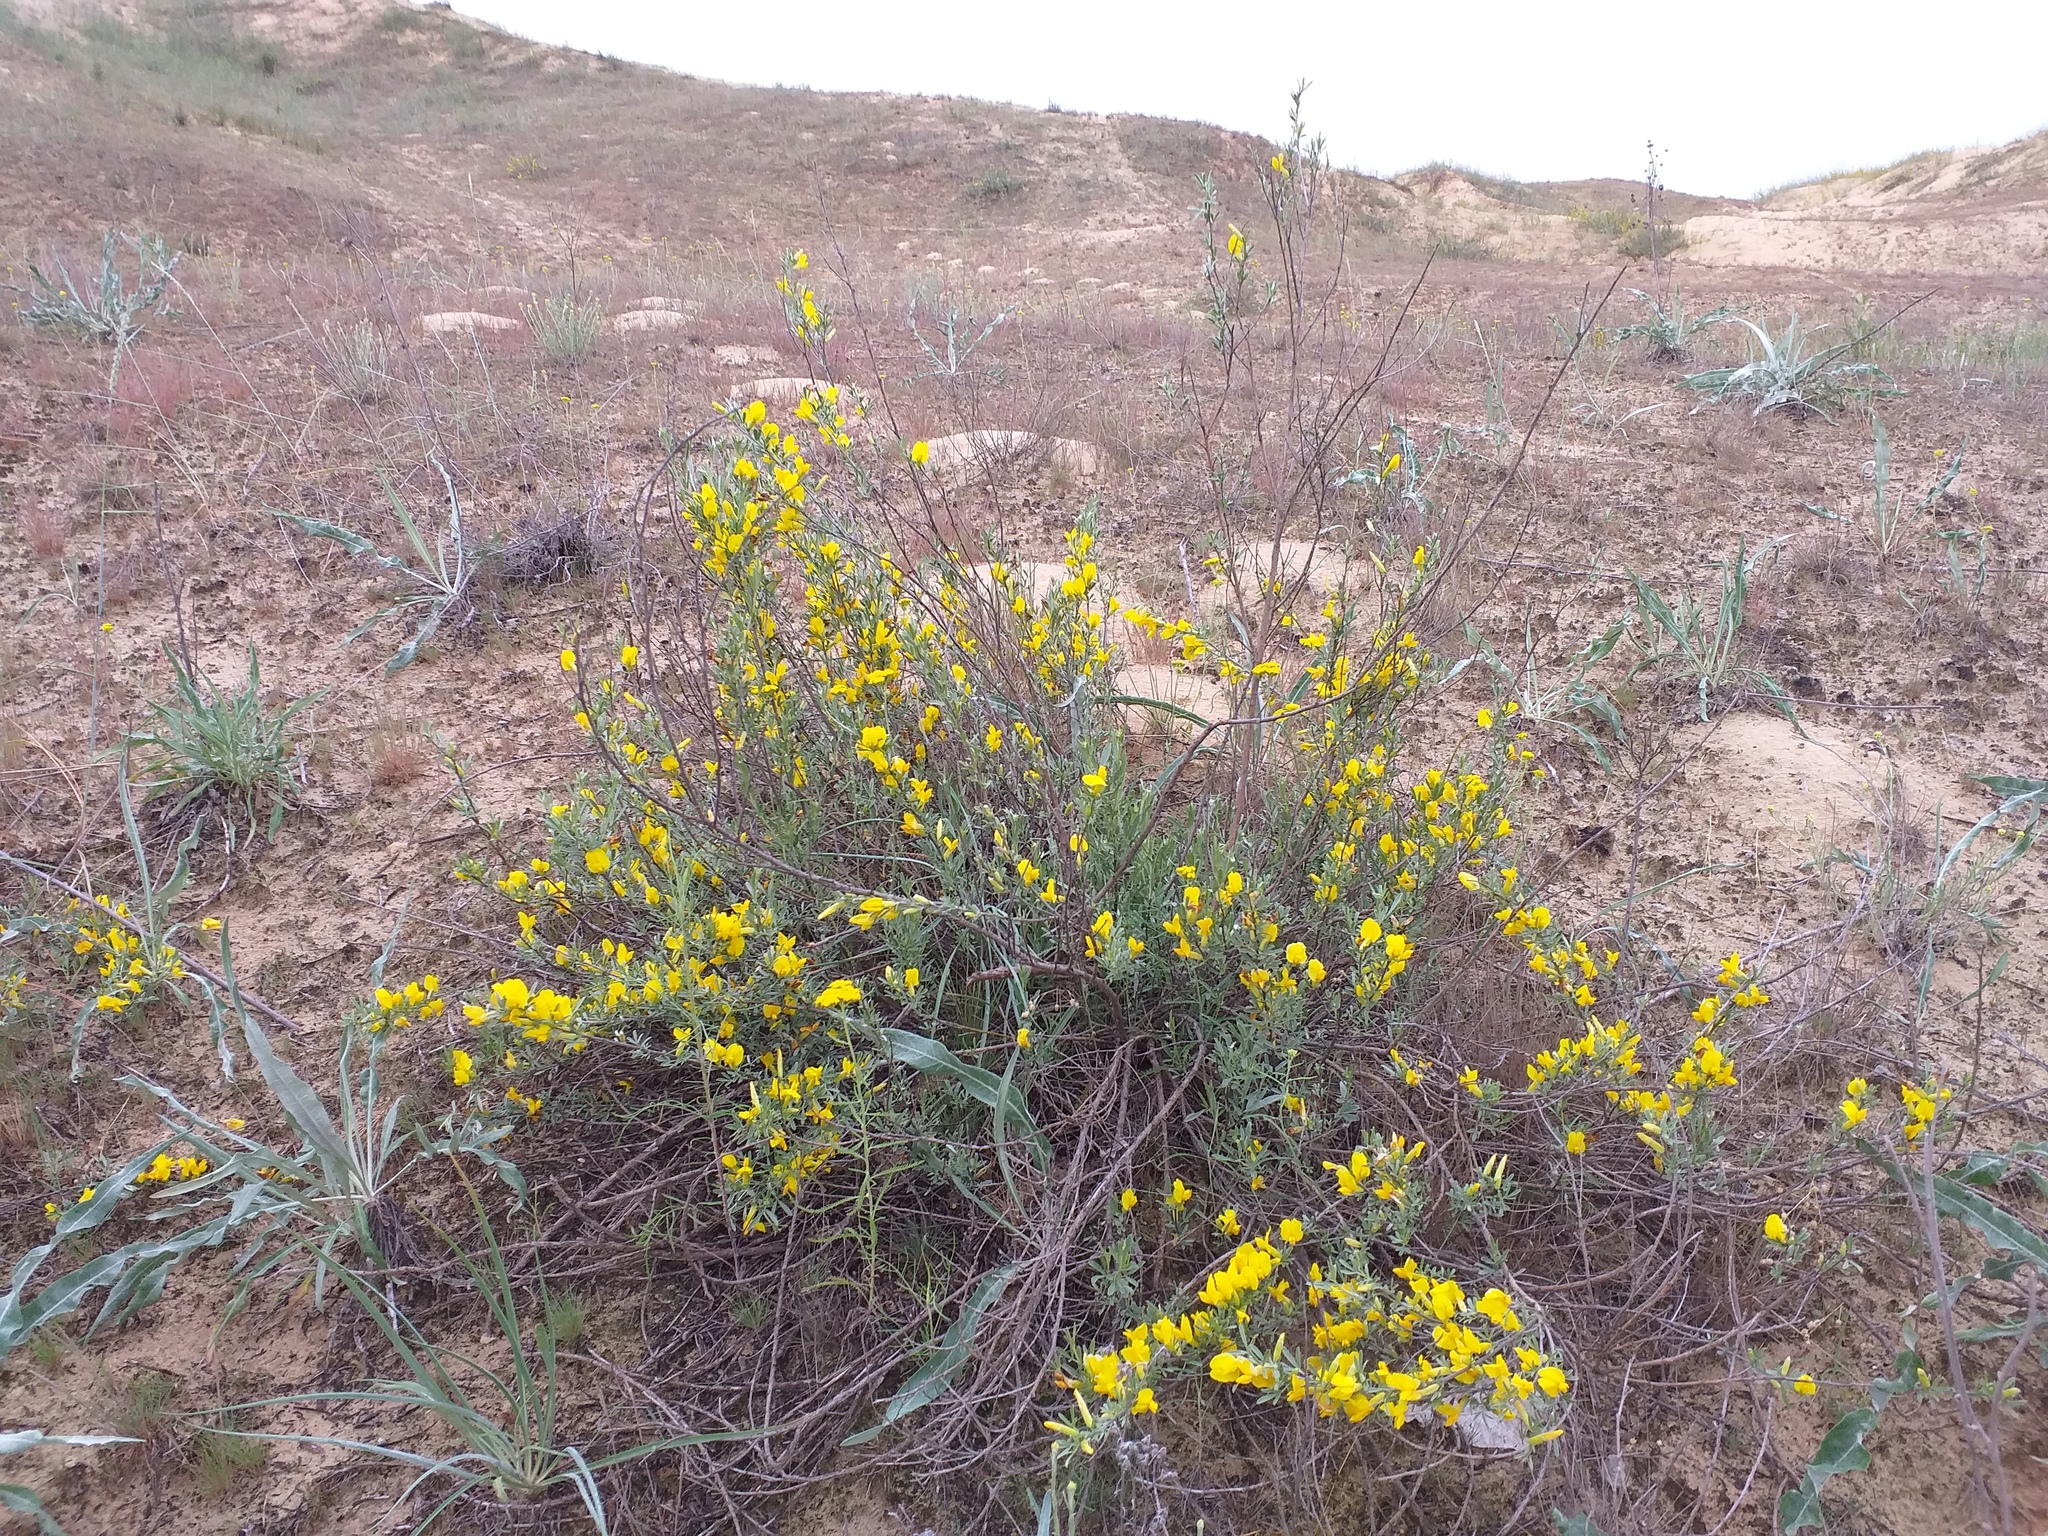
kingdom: Plantae
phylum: Tracheophyta
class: Magnoliopsida
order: Fabales
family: Fabaceae
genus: Chamaecytisus
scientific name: Chamaecytisus borysthenicus
